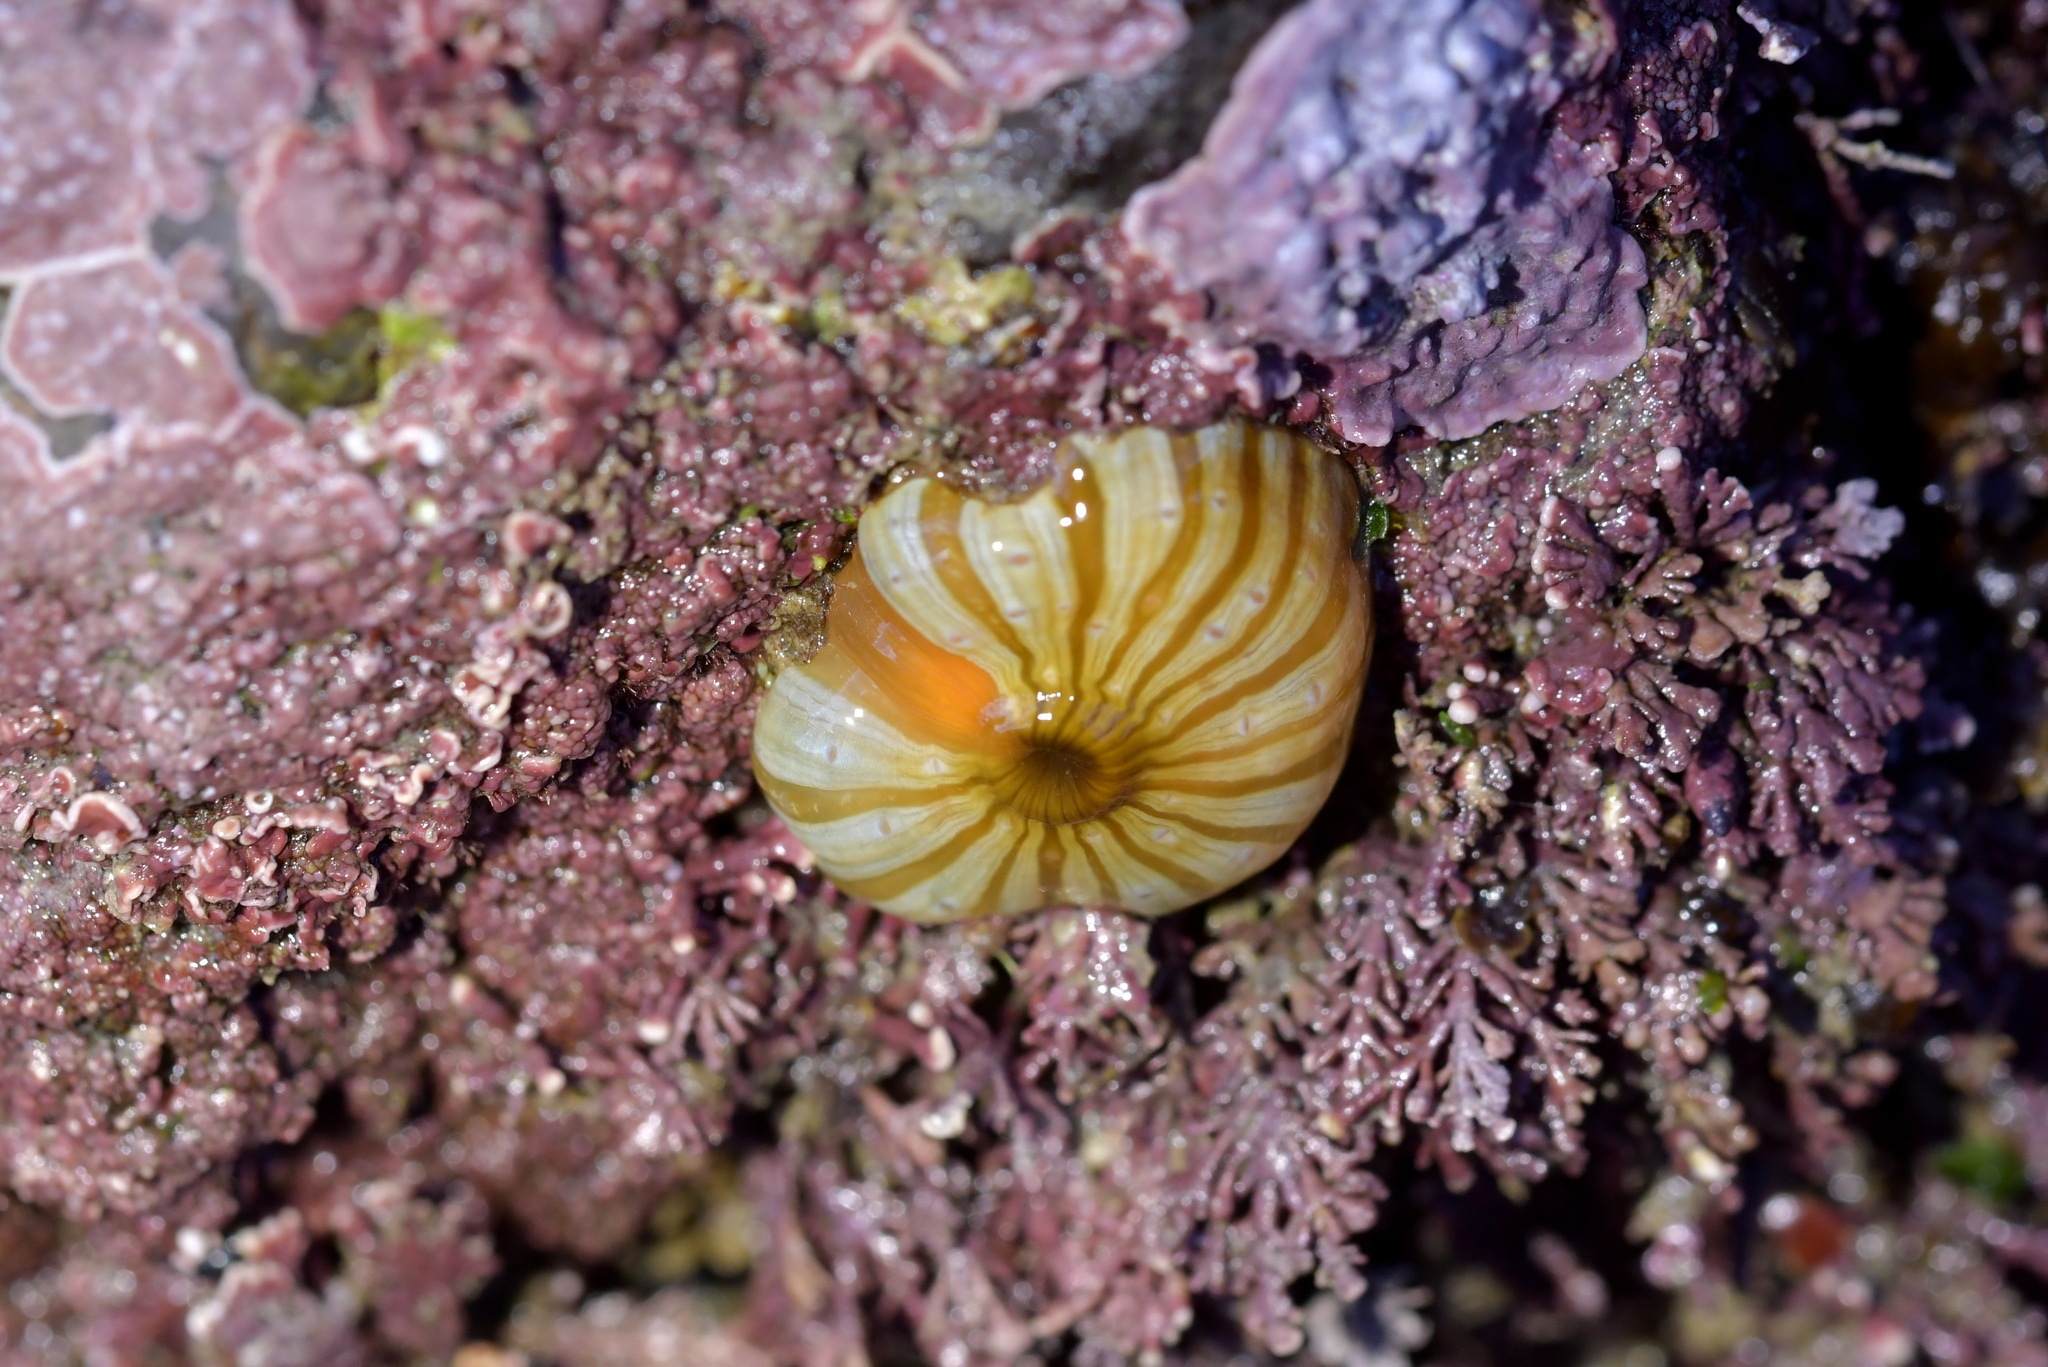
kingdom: Animalia
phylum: Cnidaria
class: Anthozoa
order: Actiniaria
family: Sagartiidae
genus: Anthothoe
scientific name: Anthothoe albocincta
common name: Orange striped anemone
